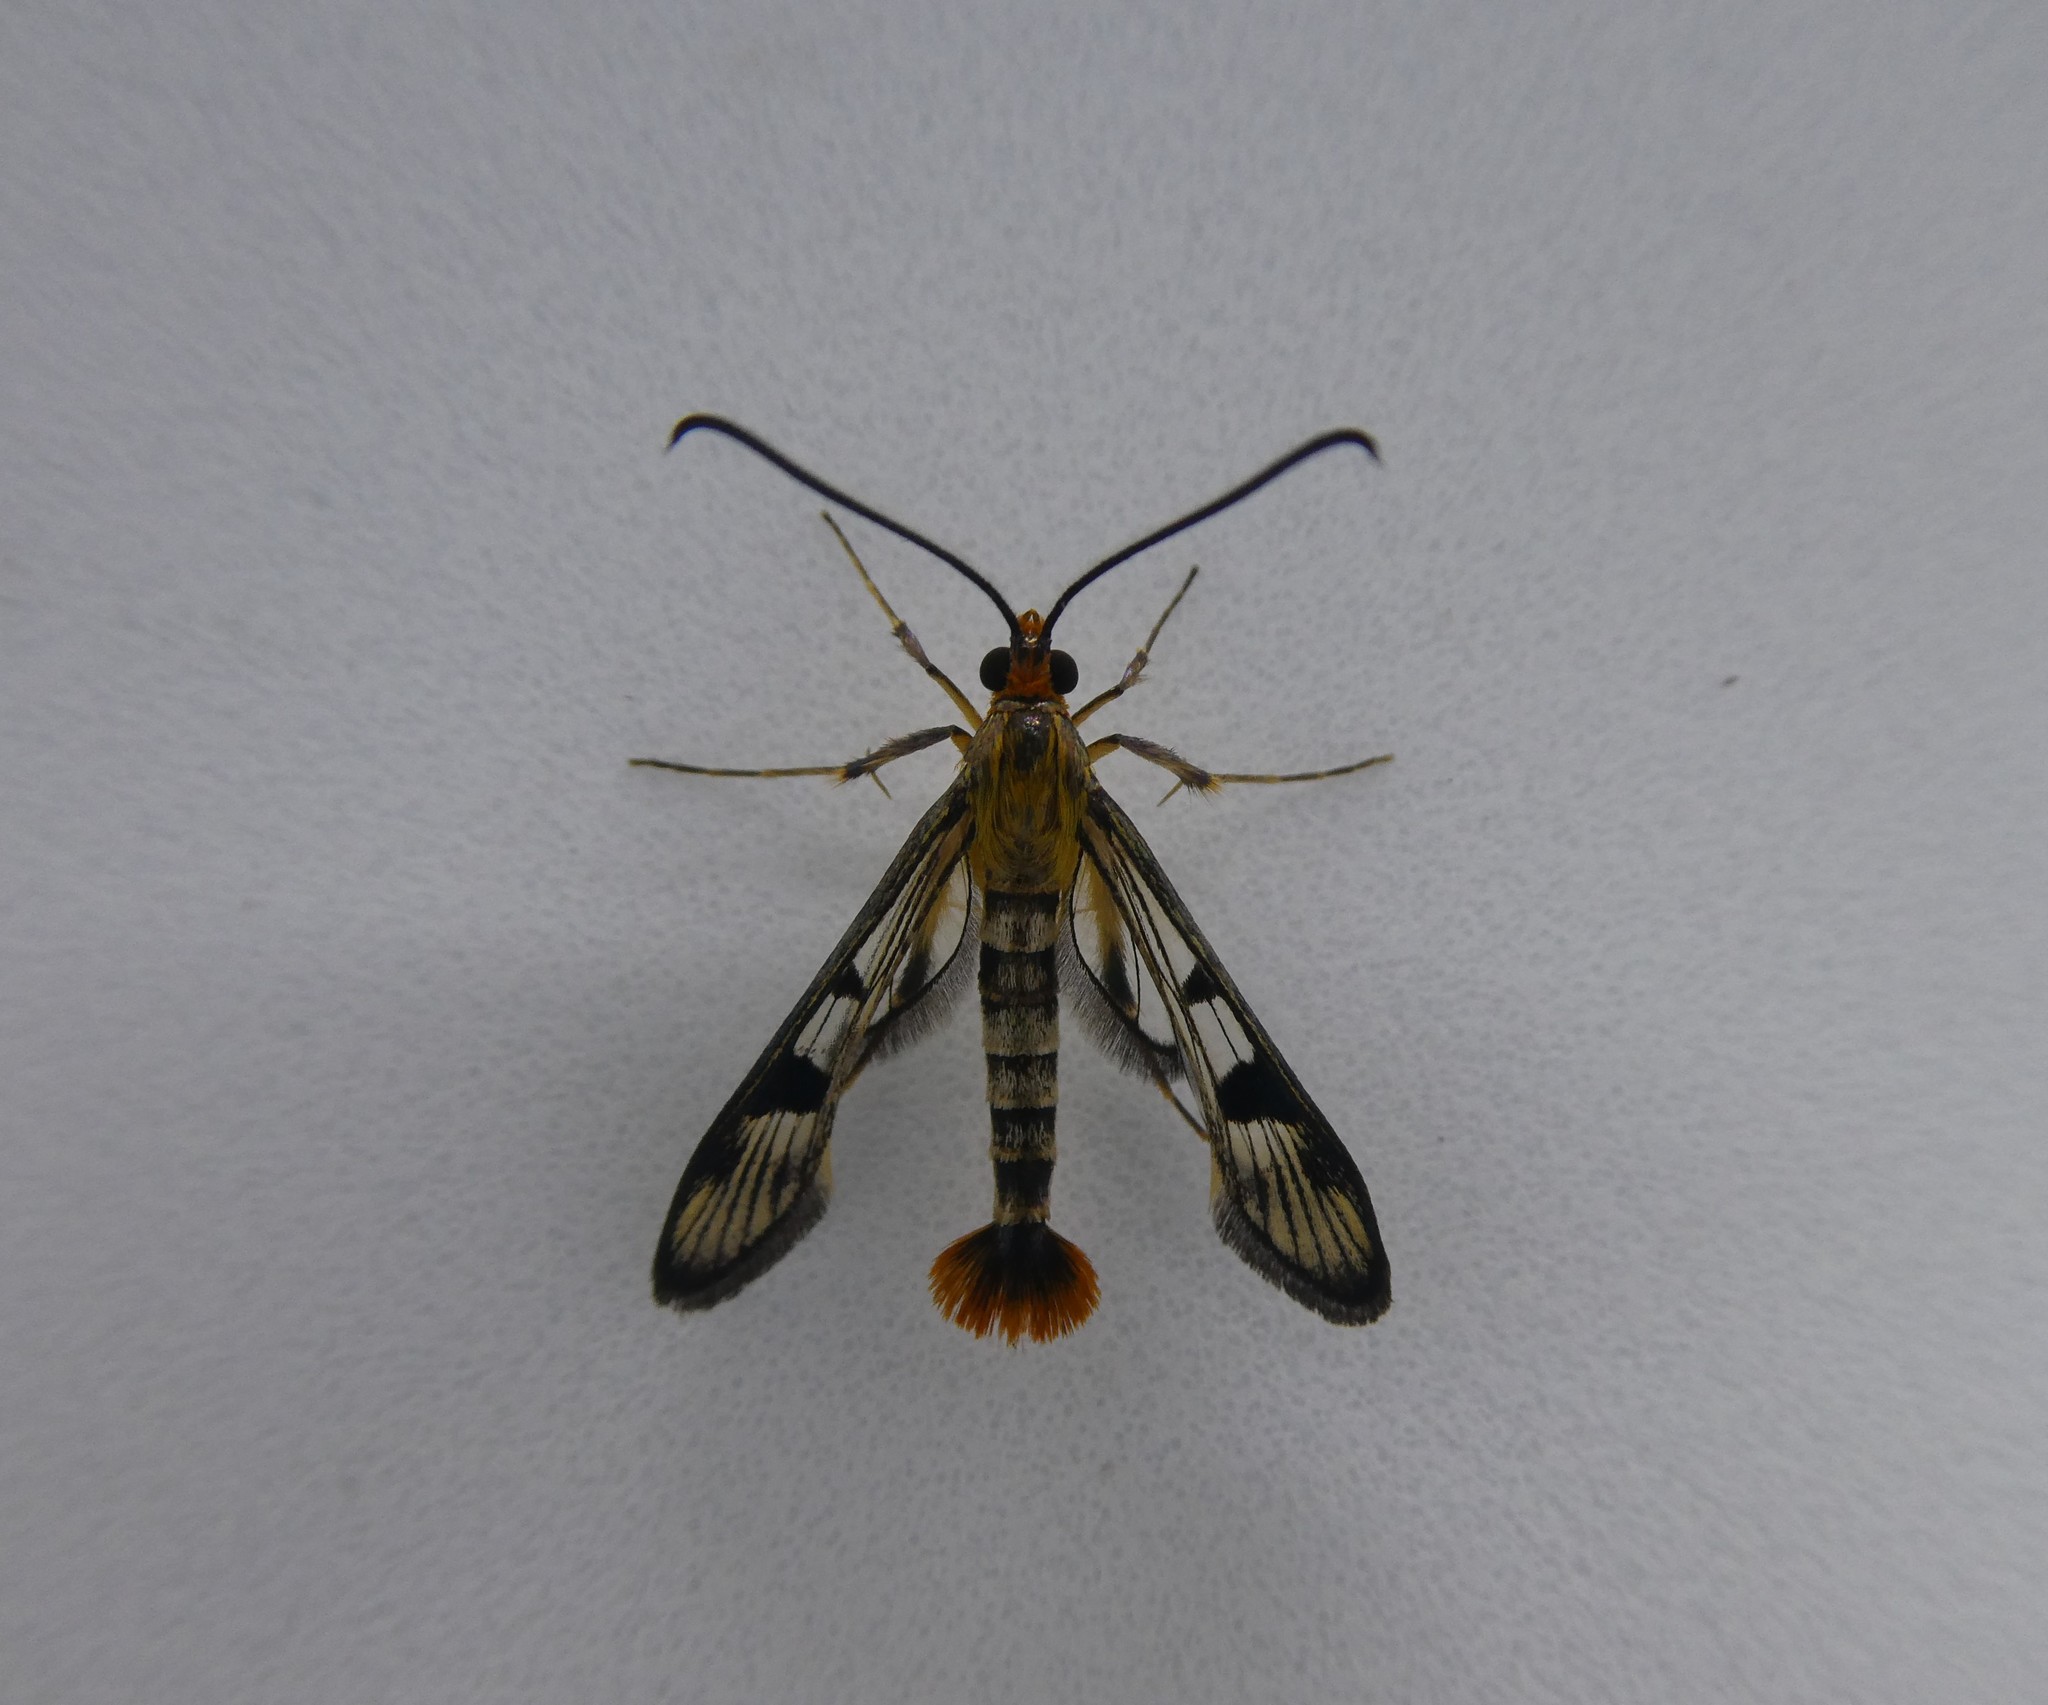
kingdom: Animalia
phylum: Arthropoda
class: Insecta
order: Lepidoptera
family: Sesiidae
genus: Synanthedon
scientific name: Synanthedon acerni
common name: Maple callus borer moth
